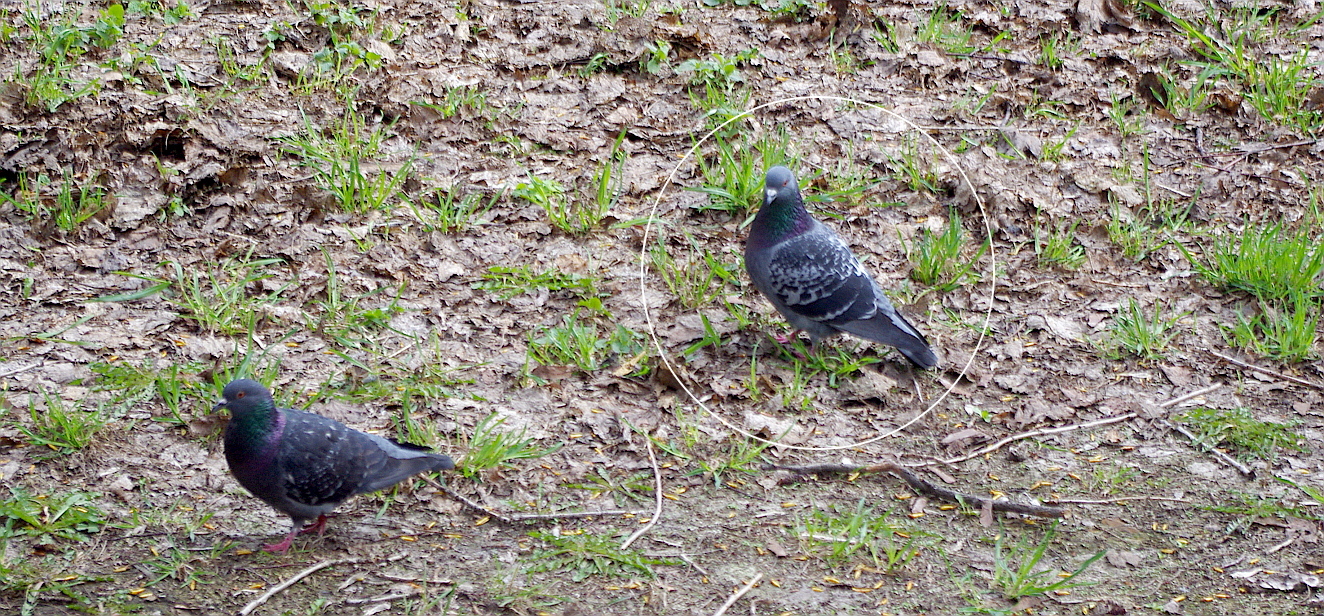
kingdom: Animalia
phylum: Chordata
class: Aves
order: Columbiformes
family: Columbidae
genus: Columba
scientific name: Columba livia
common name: Rock pigeon
